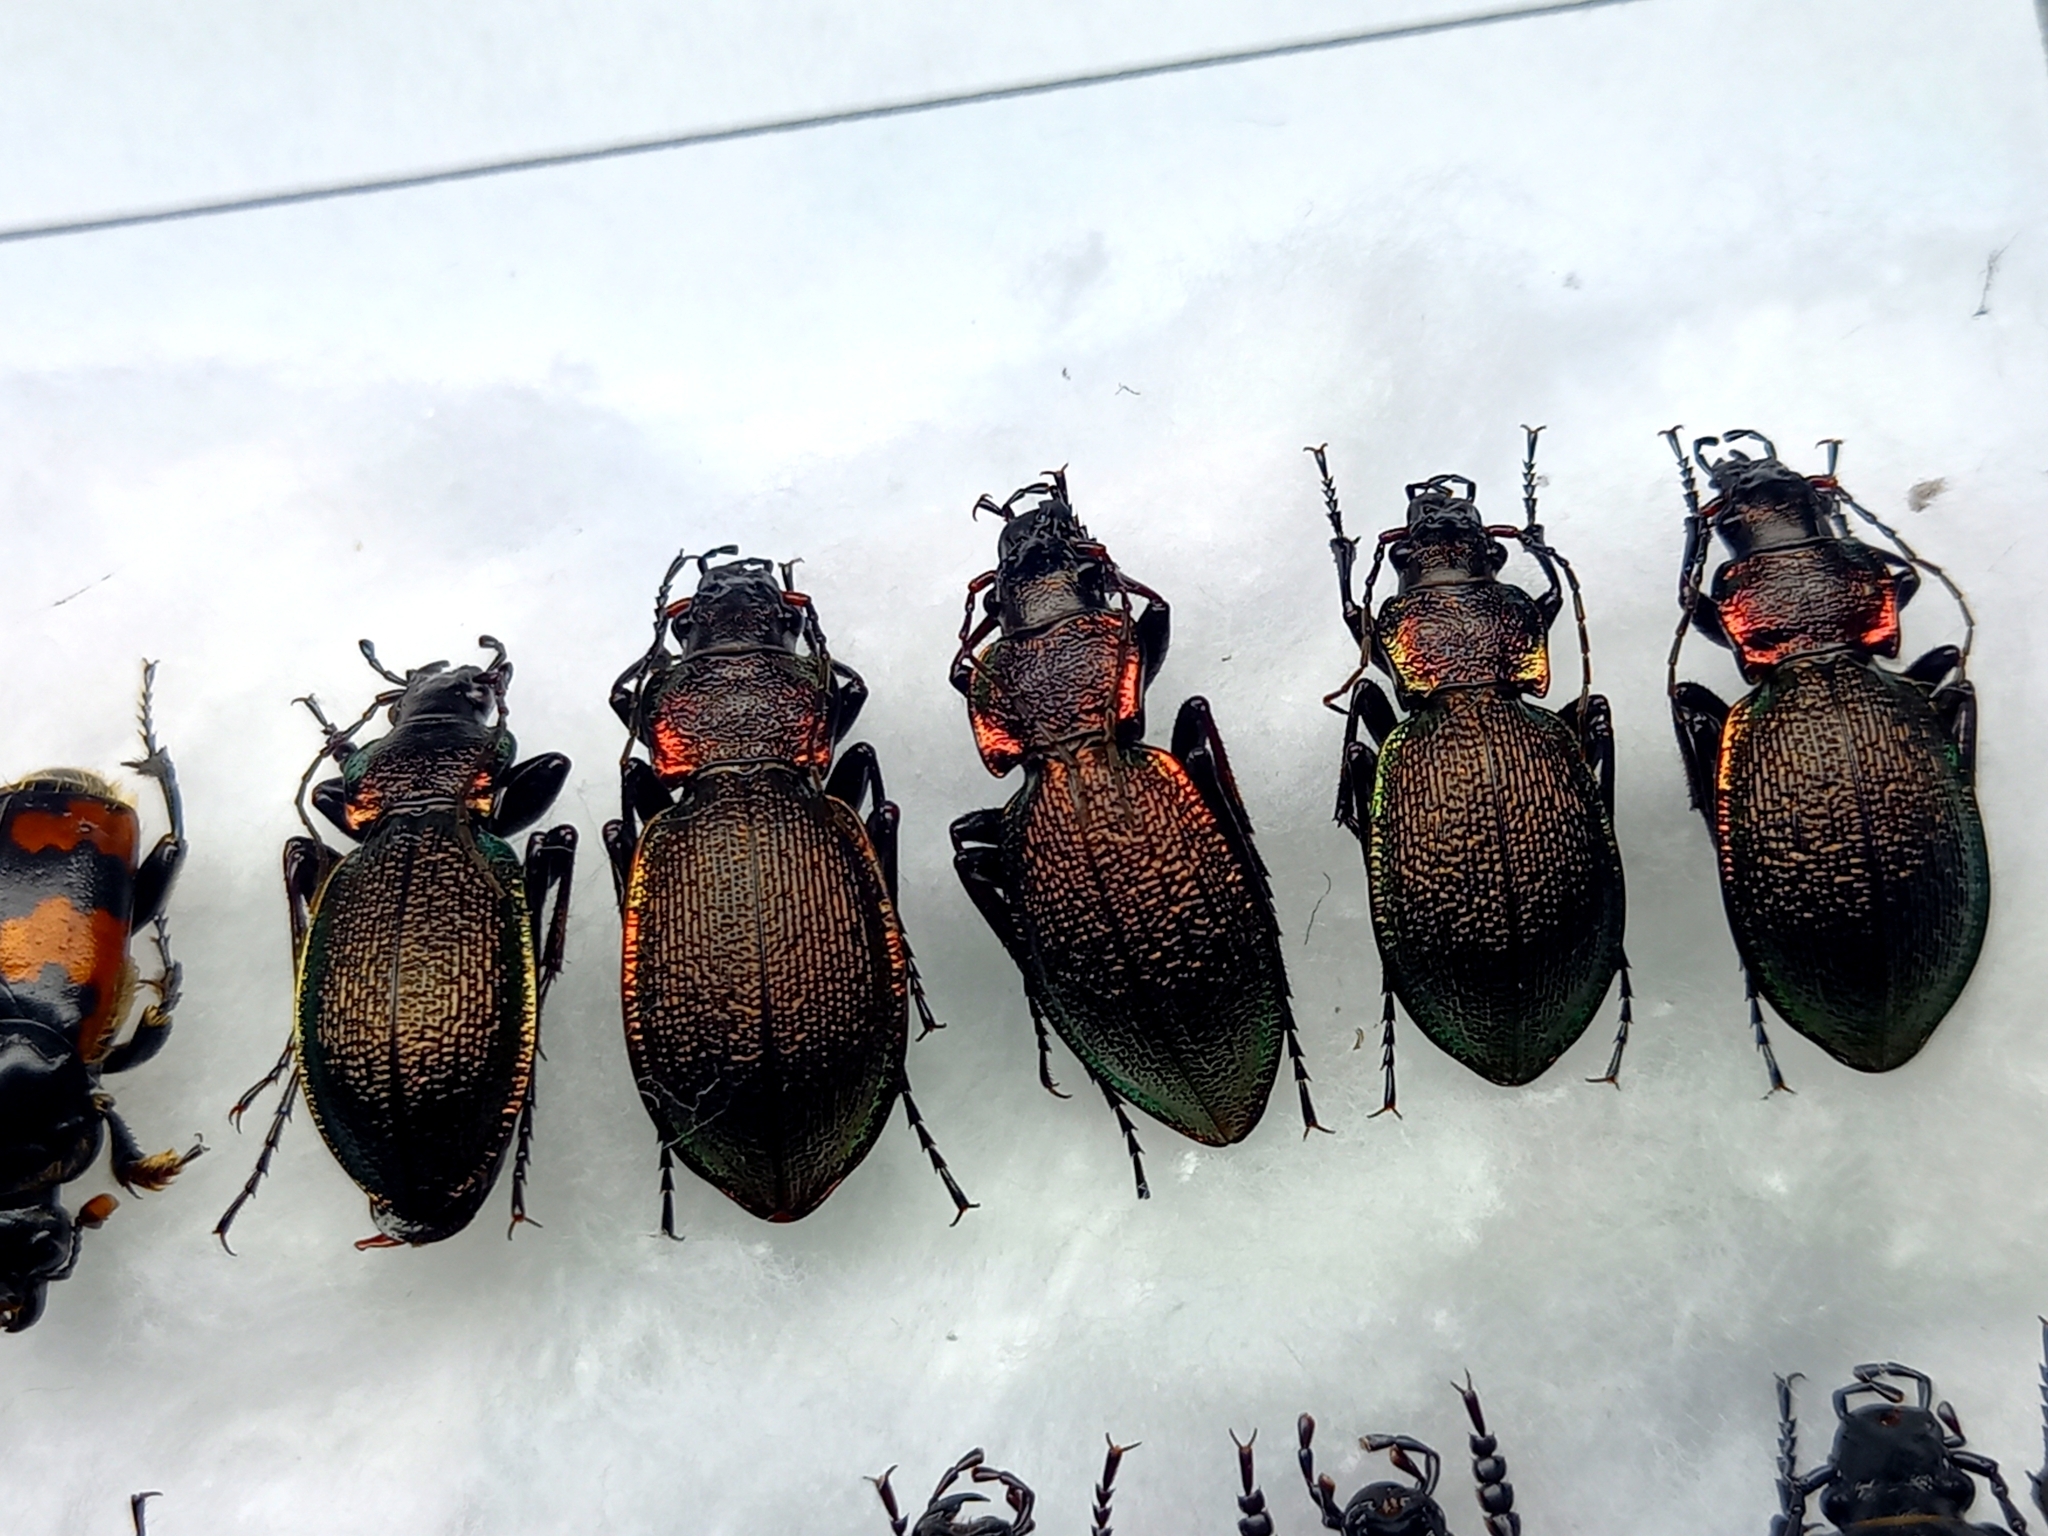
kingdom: Animalia
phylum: Arthropoda
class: Insecta
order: Coleoptera
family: Carabidae
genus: Carabus
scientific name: Carabus leachii
